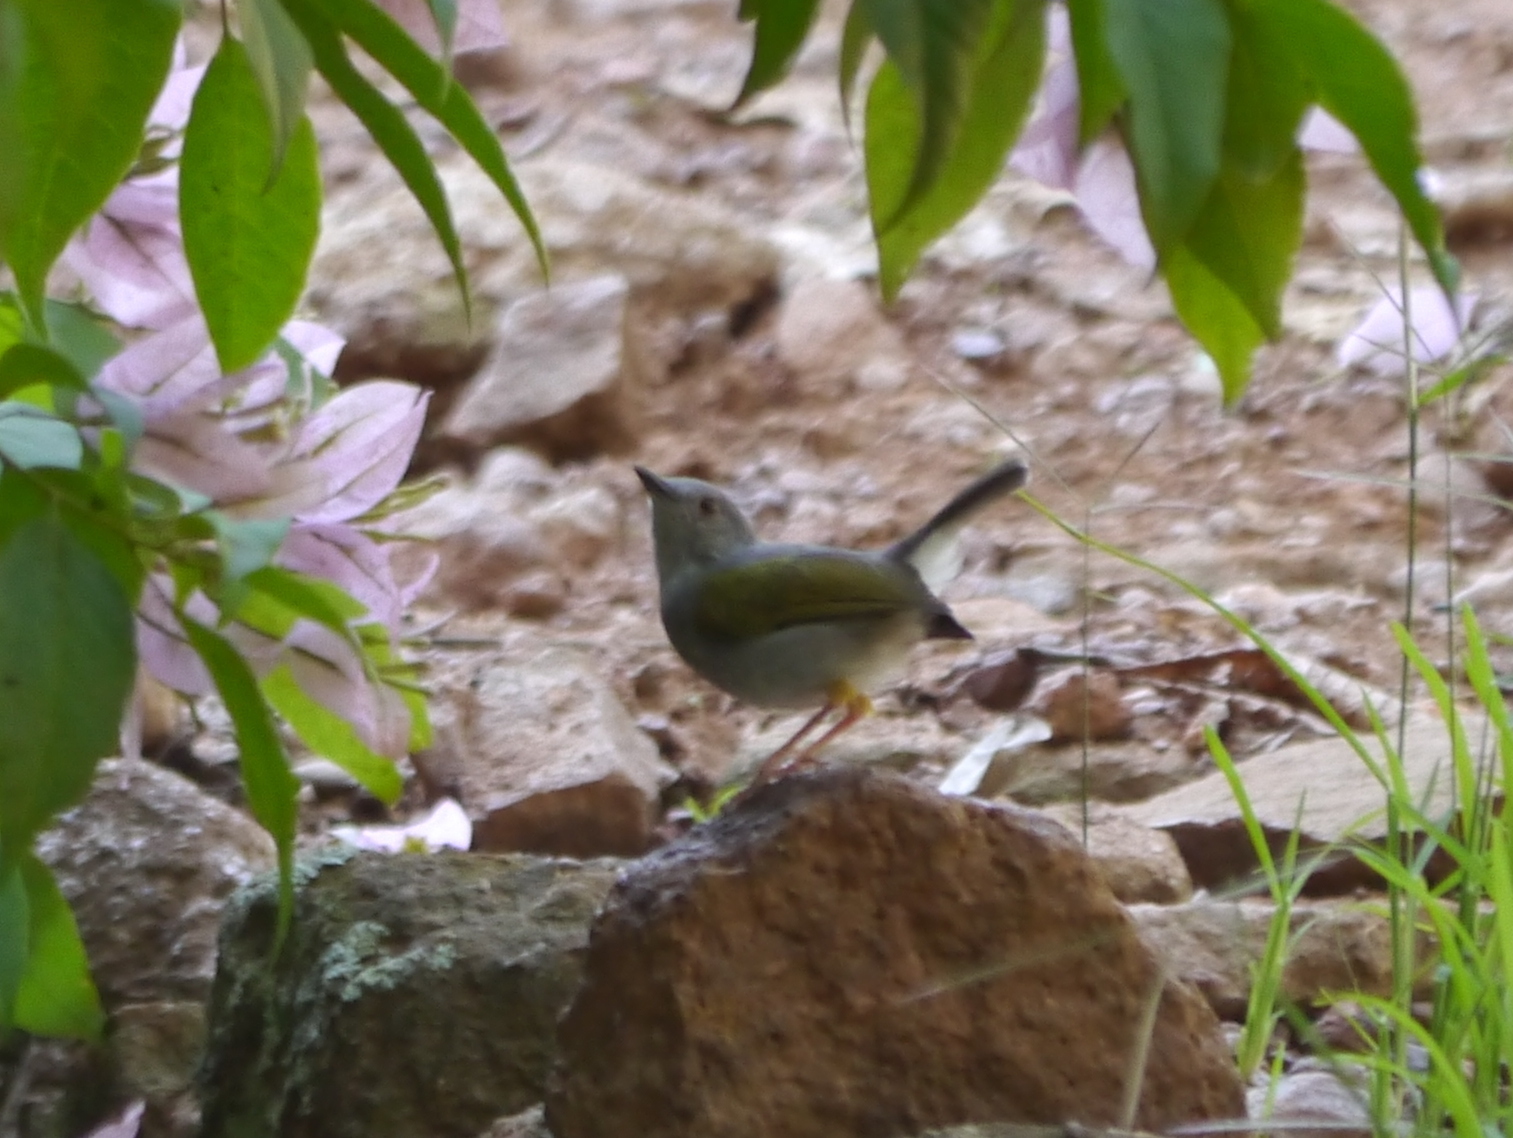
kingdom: Animalia
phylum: Chordata
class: Aves
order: Passeriformes
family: Cisticolidae
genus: Camaroptera
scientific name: Camaroptera brachyura
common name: Green-backed camaroptera
